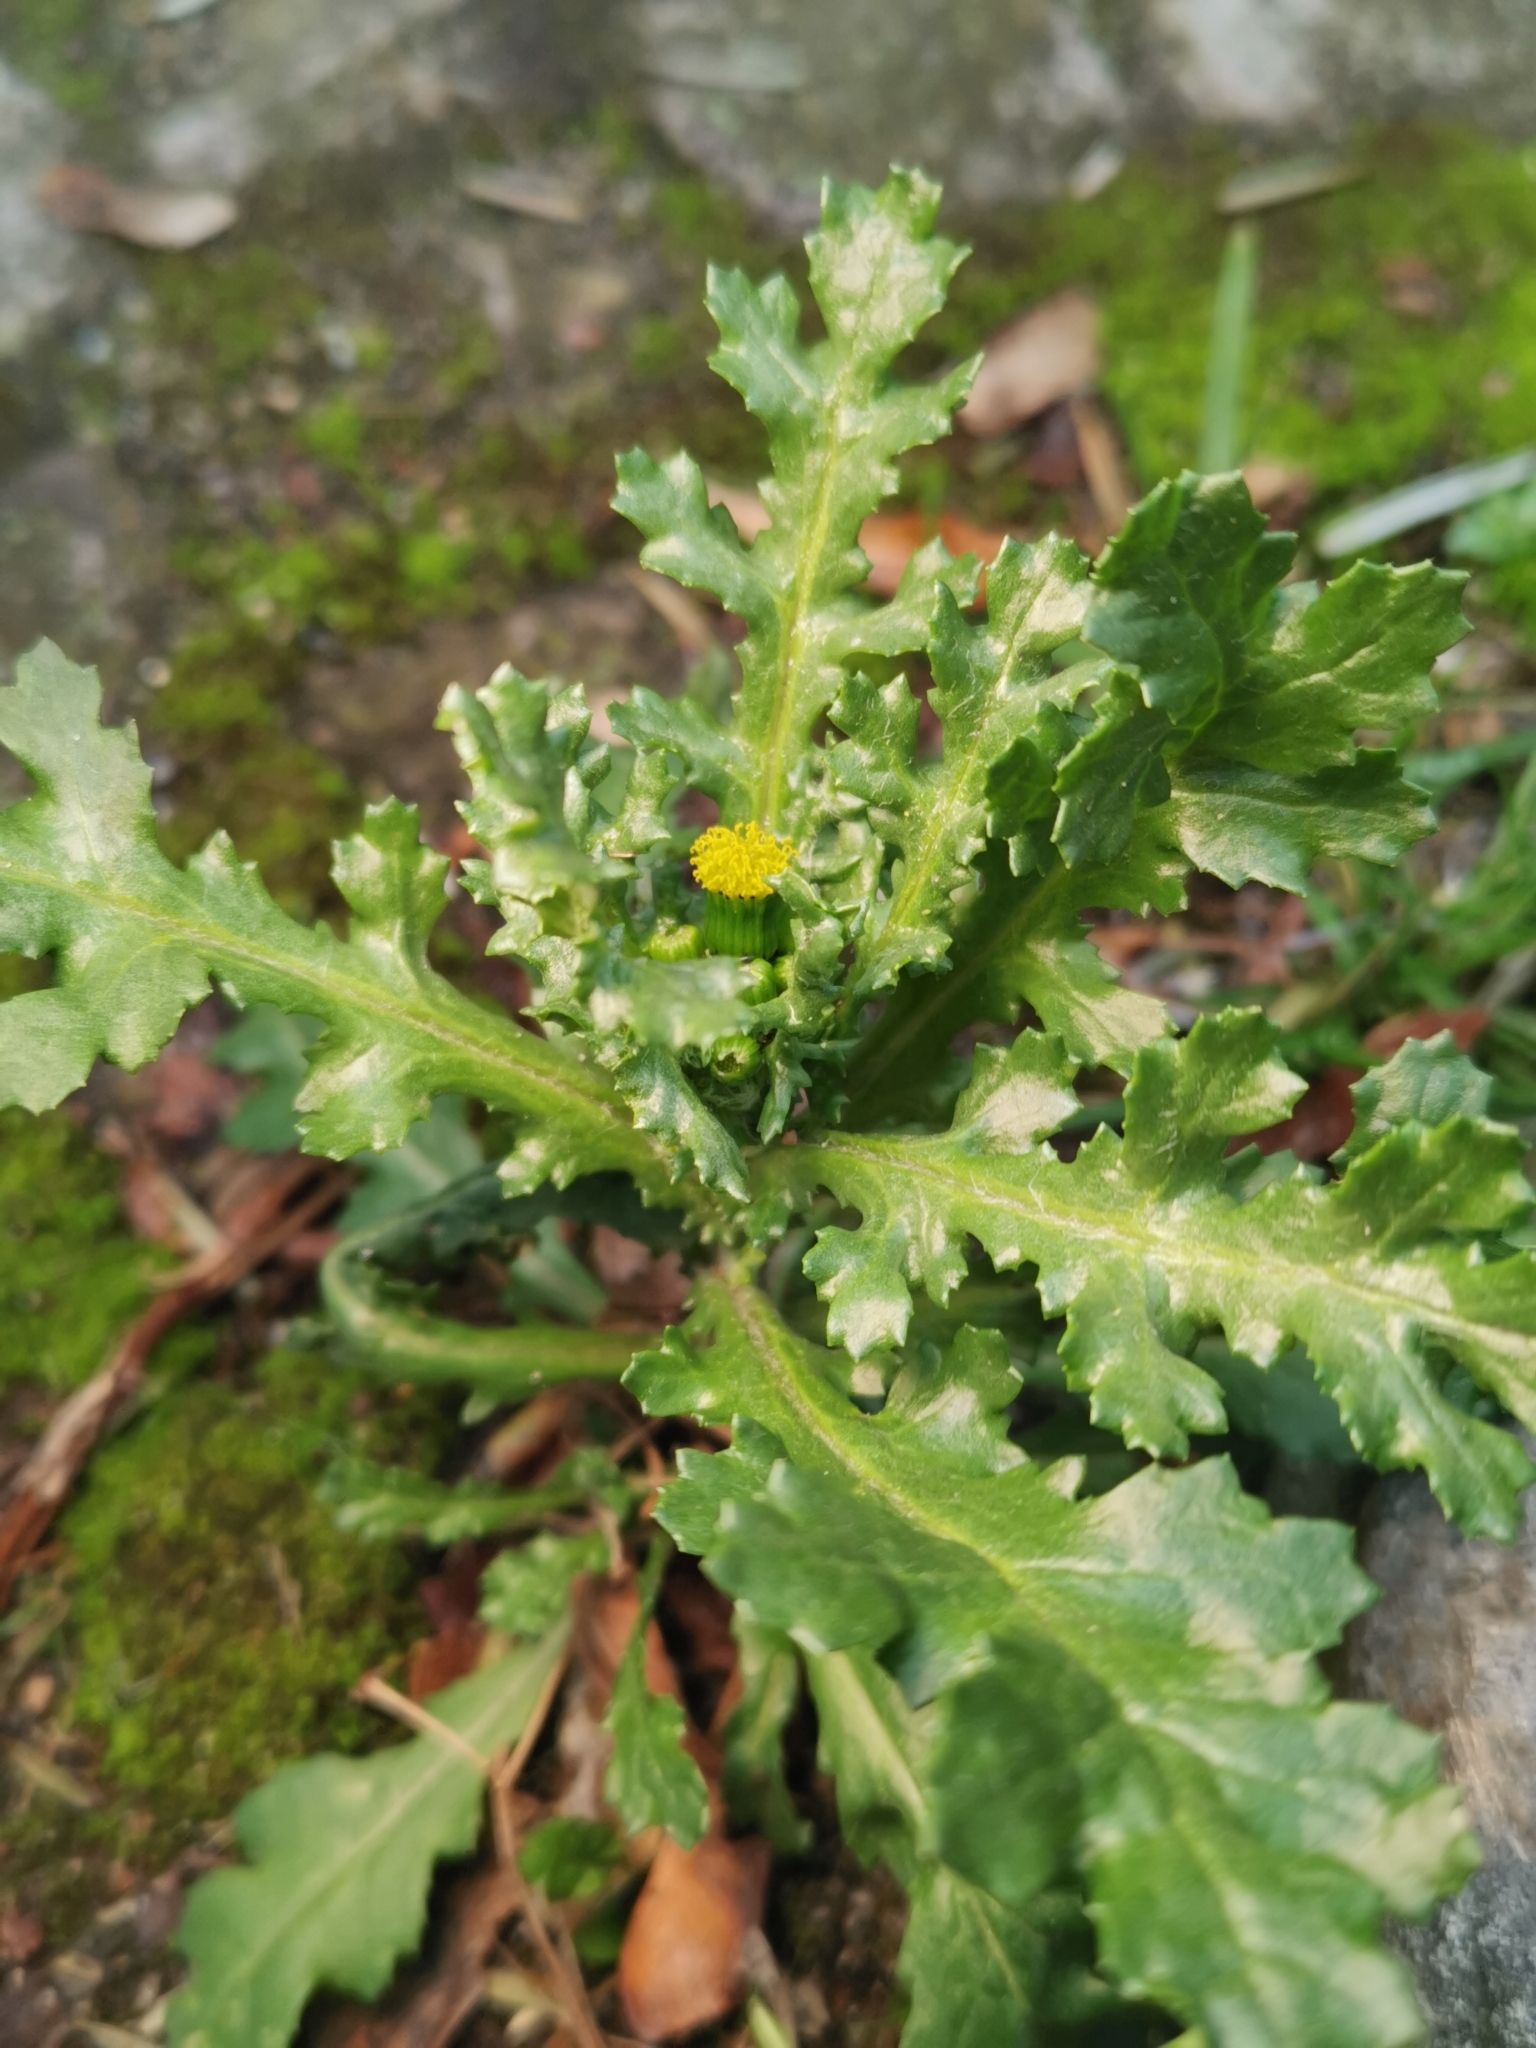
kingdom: Plantae
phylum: Tracheophyta
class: Magnoliopsida
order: Asterales
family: Asteraceae
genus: Senecio
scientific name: Senecio vulgaris
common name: Old-man-in-the-spring
